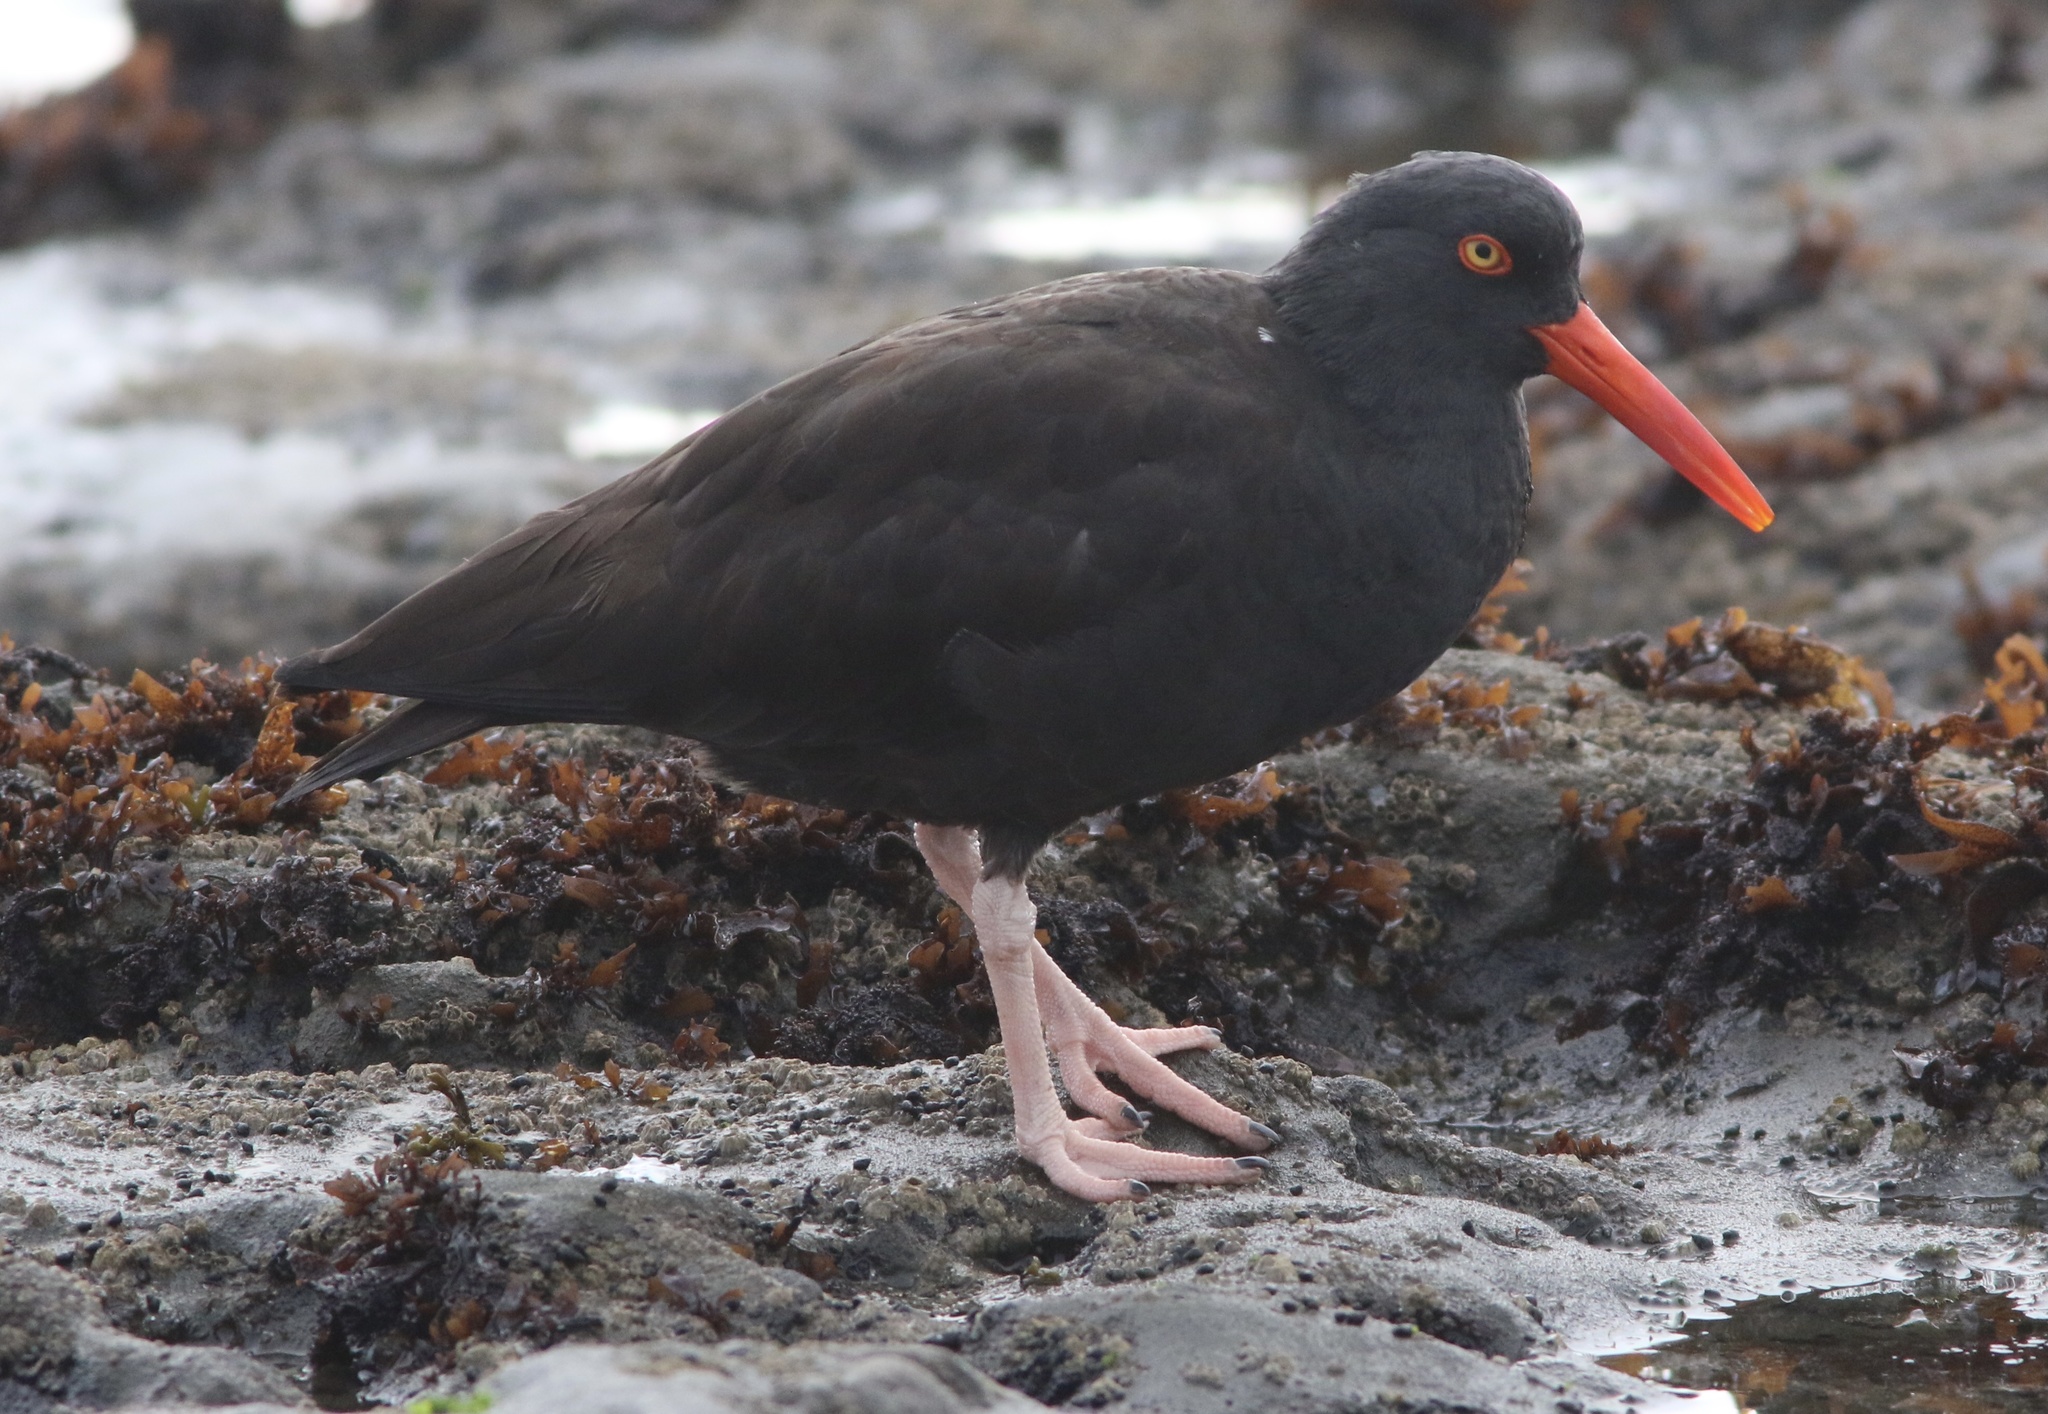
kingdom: Animalia
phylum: Chordata
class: Aves
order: Charadriiformes
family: Haematopodidae
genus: Haematopus
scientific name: Haematopus bachmani
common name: Black oystercatcher
